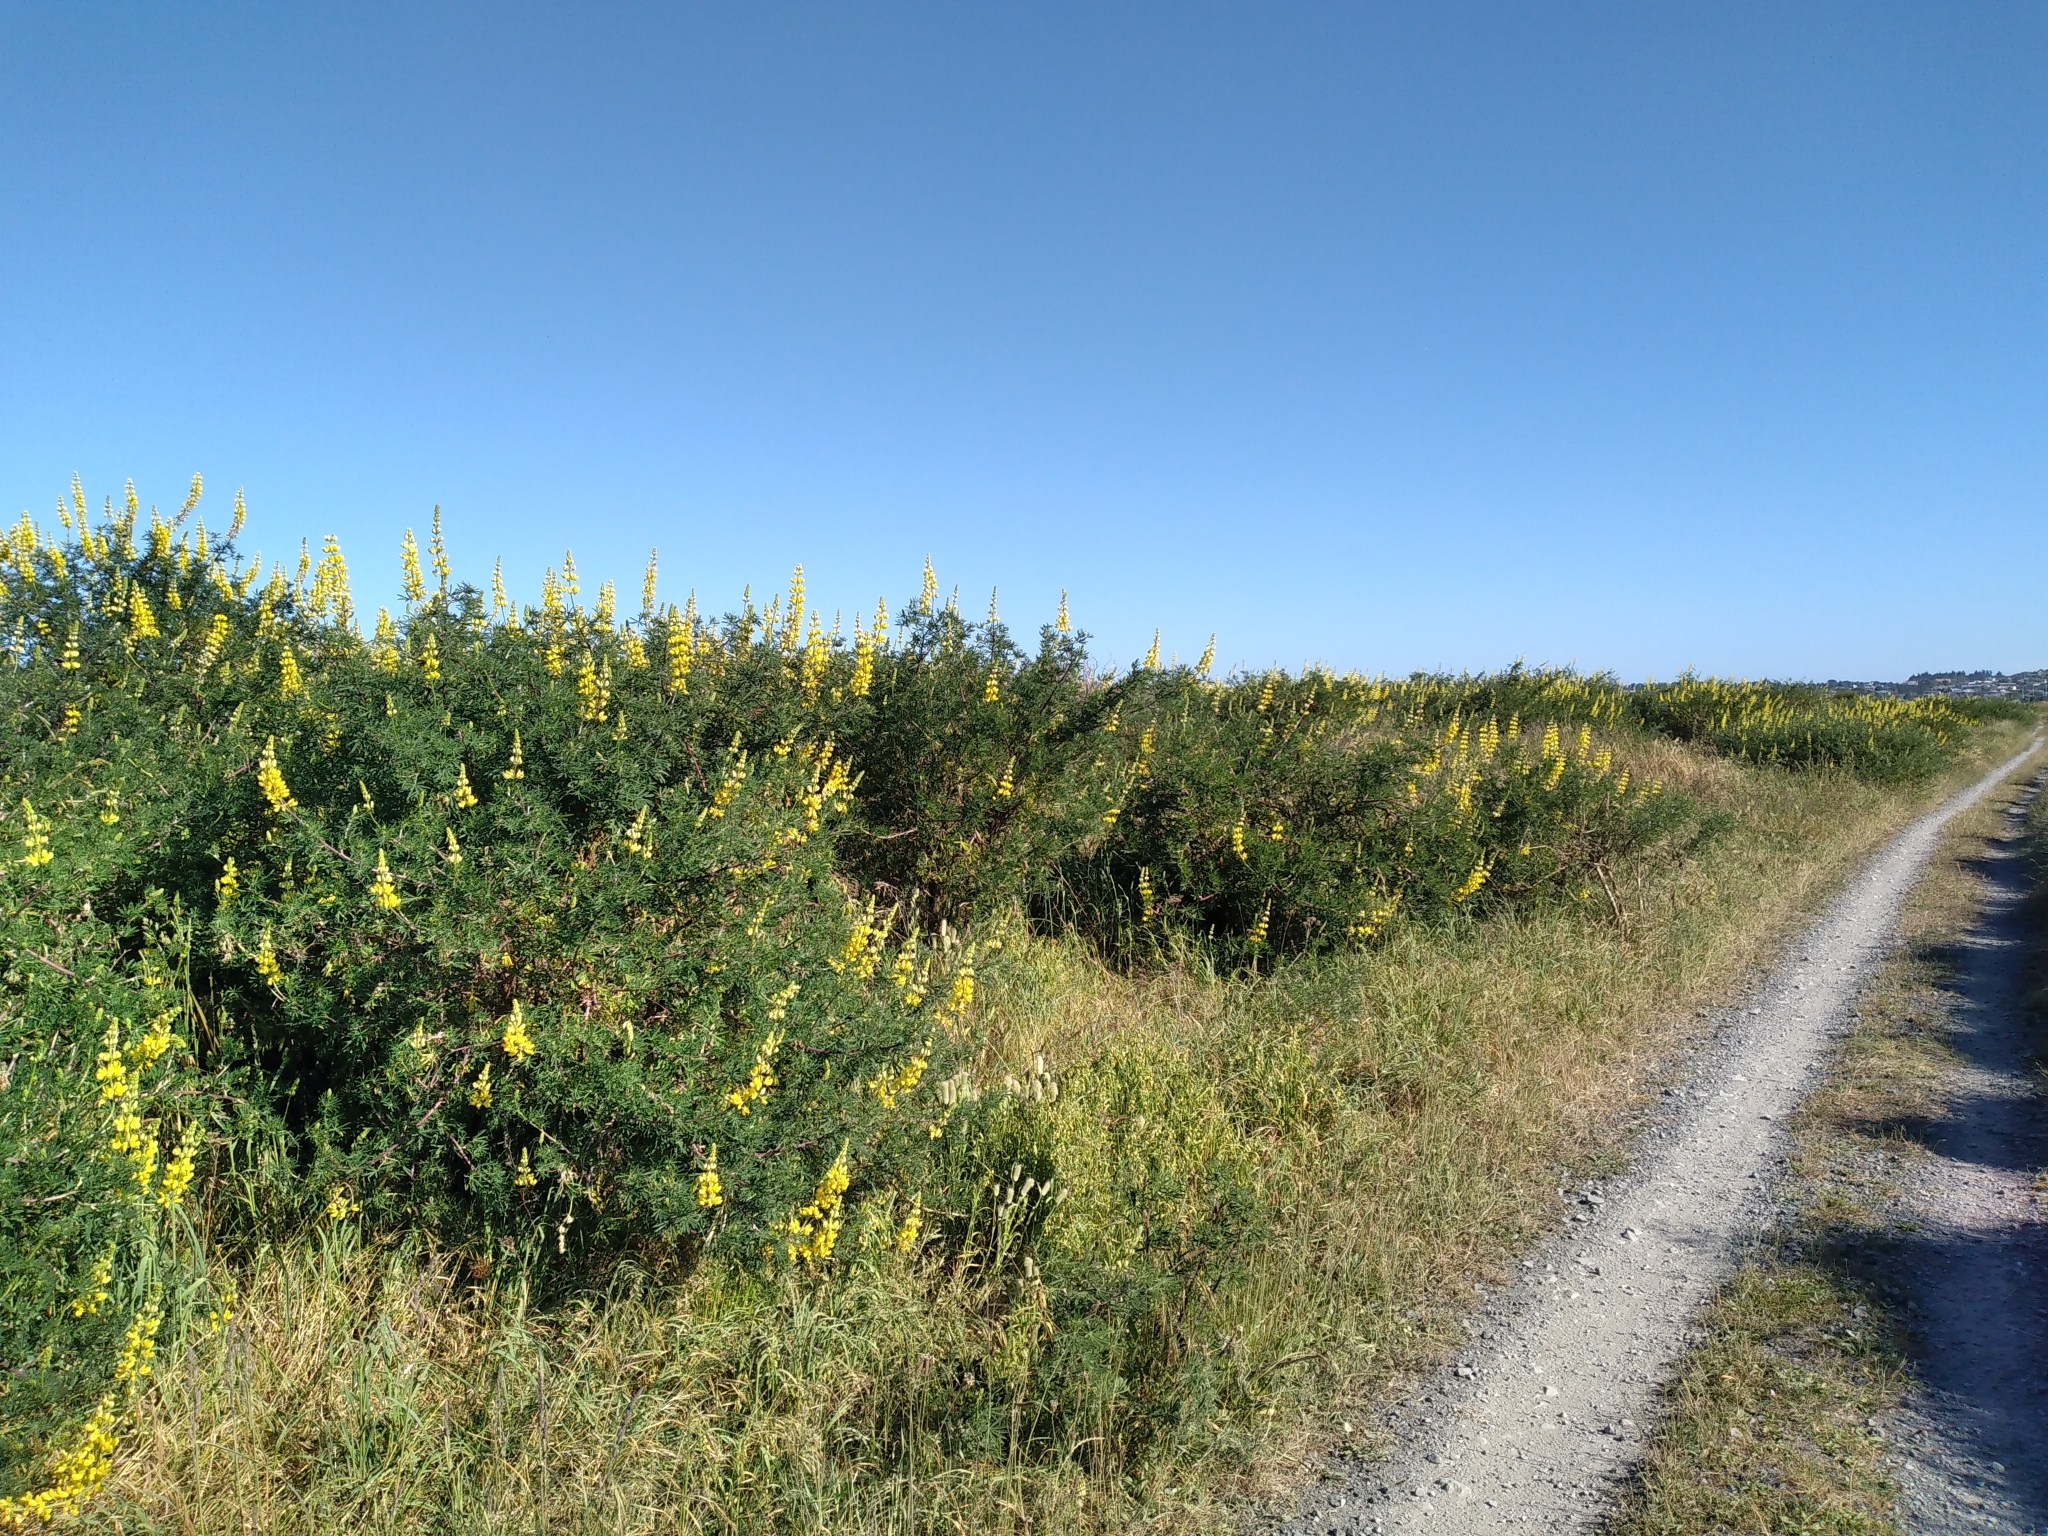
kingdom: Plantae
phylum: Tracheophyta
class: Magnoliopsida
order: Fabales
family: Fabaceae
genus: Lupinus
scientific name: Lupinus arboreus
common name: Yellow bush lupine
